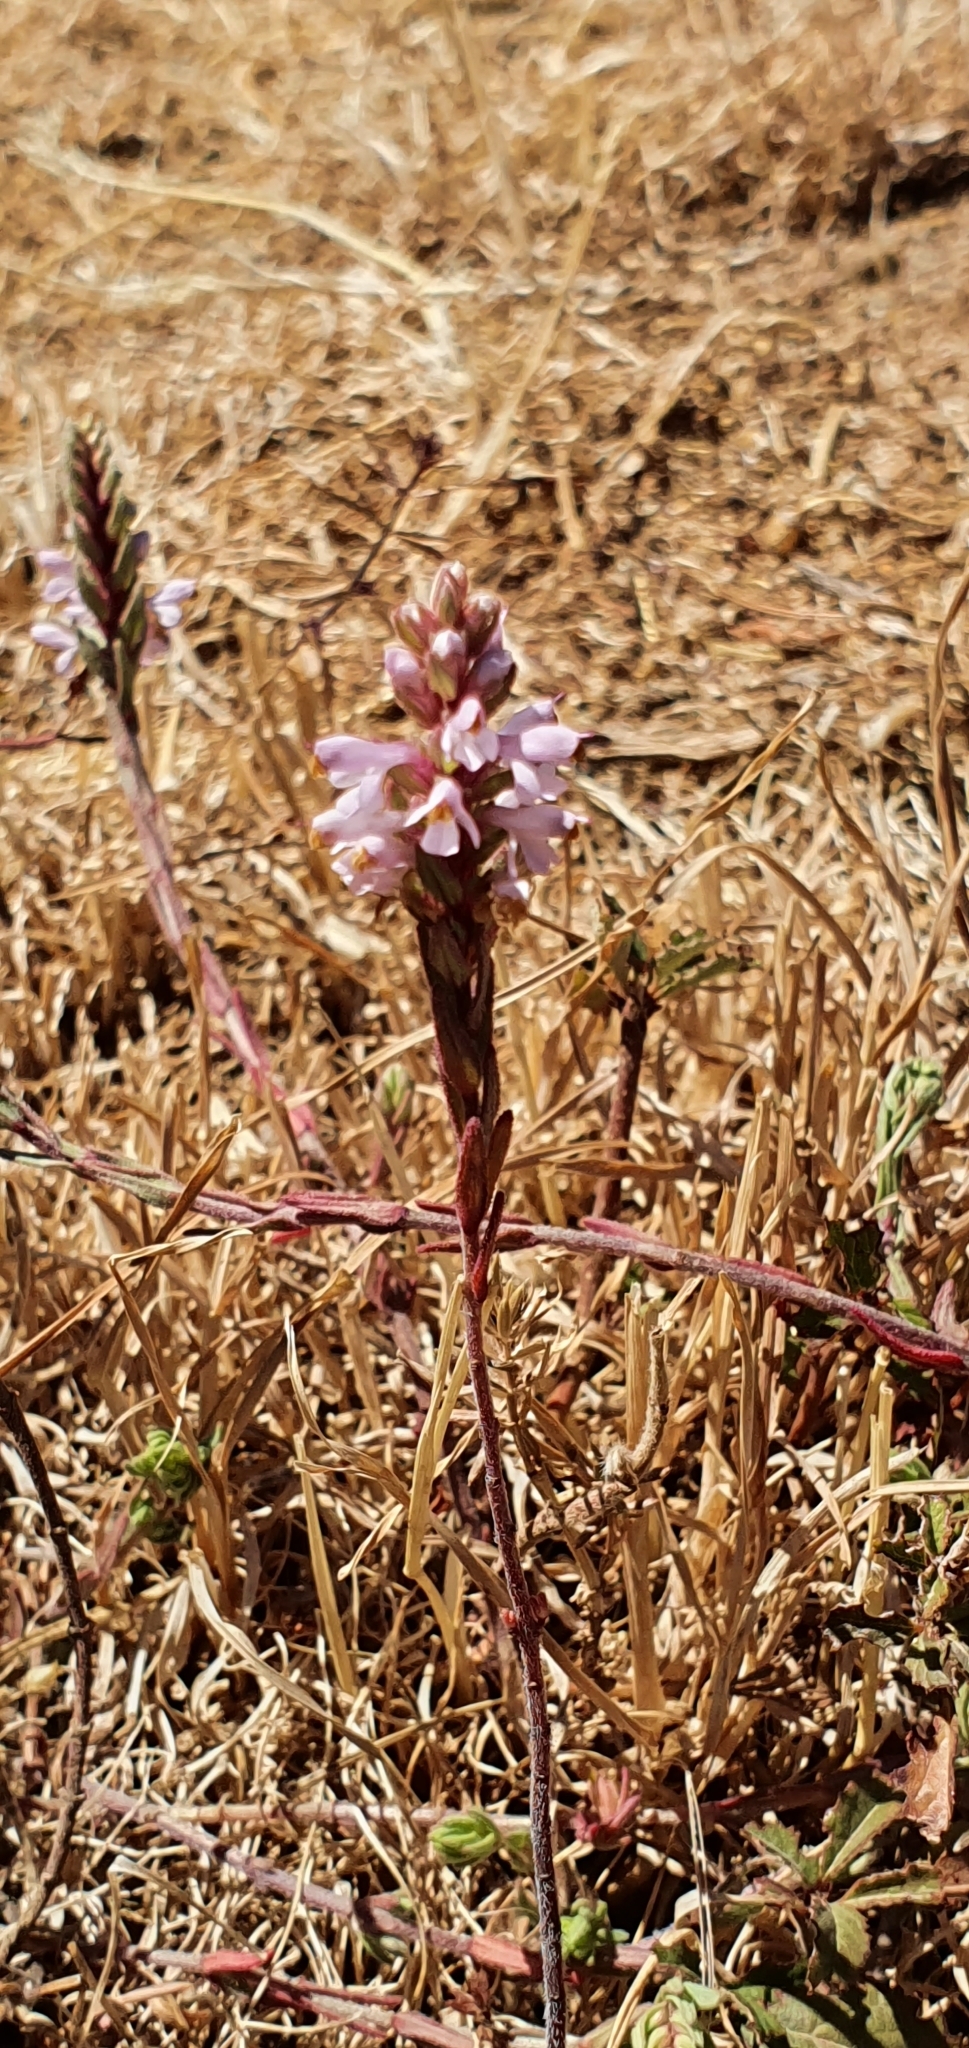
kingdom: Plantae
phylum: Tracheophyta
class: Magnoliopsida
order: Lamiales
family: Orobanchaceae
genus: Odontites
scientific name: Odontites violaceus
